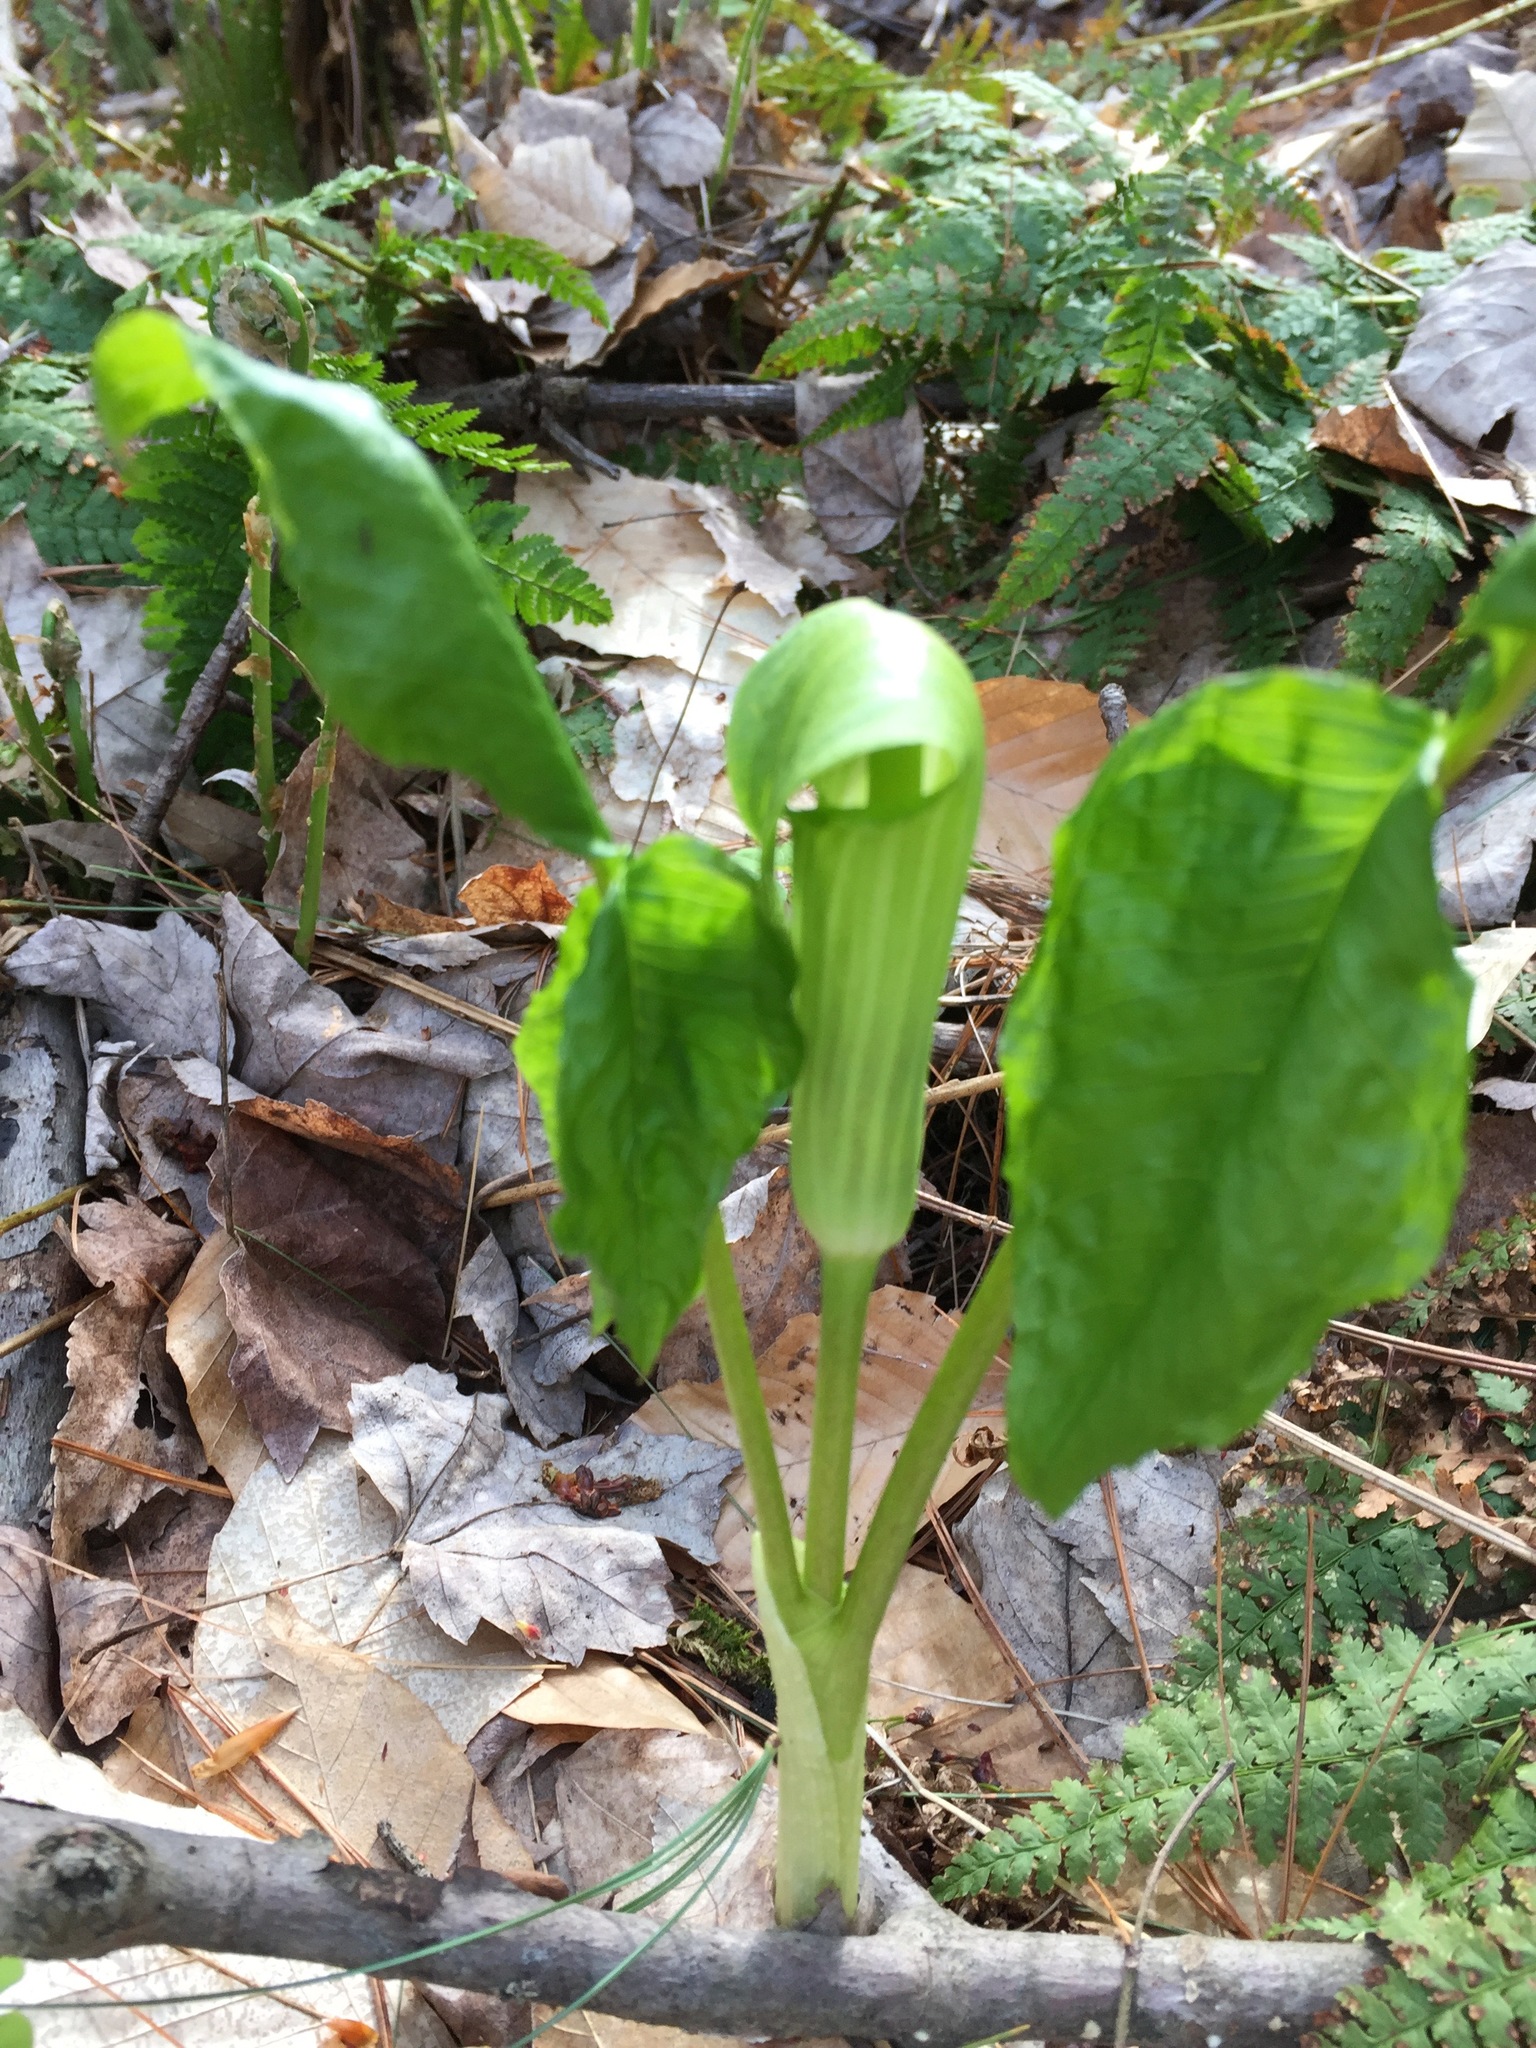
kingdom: Plantae
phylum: Tracheophyta
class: Liliopsida
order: Alismatales
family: Araceae
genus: Arisaema
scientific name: Arisaema triphyllum
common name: Jack-in-the-pulpit
